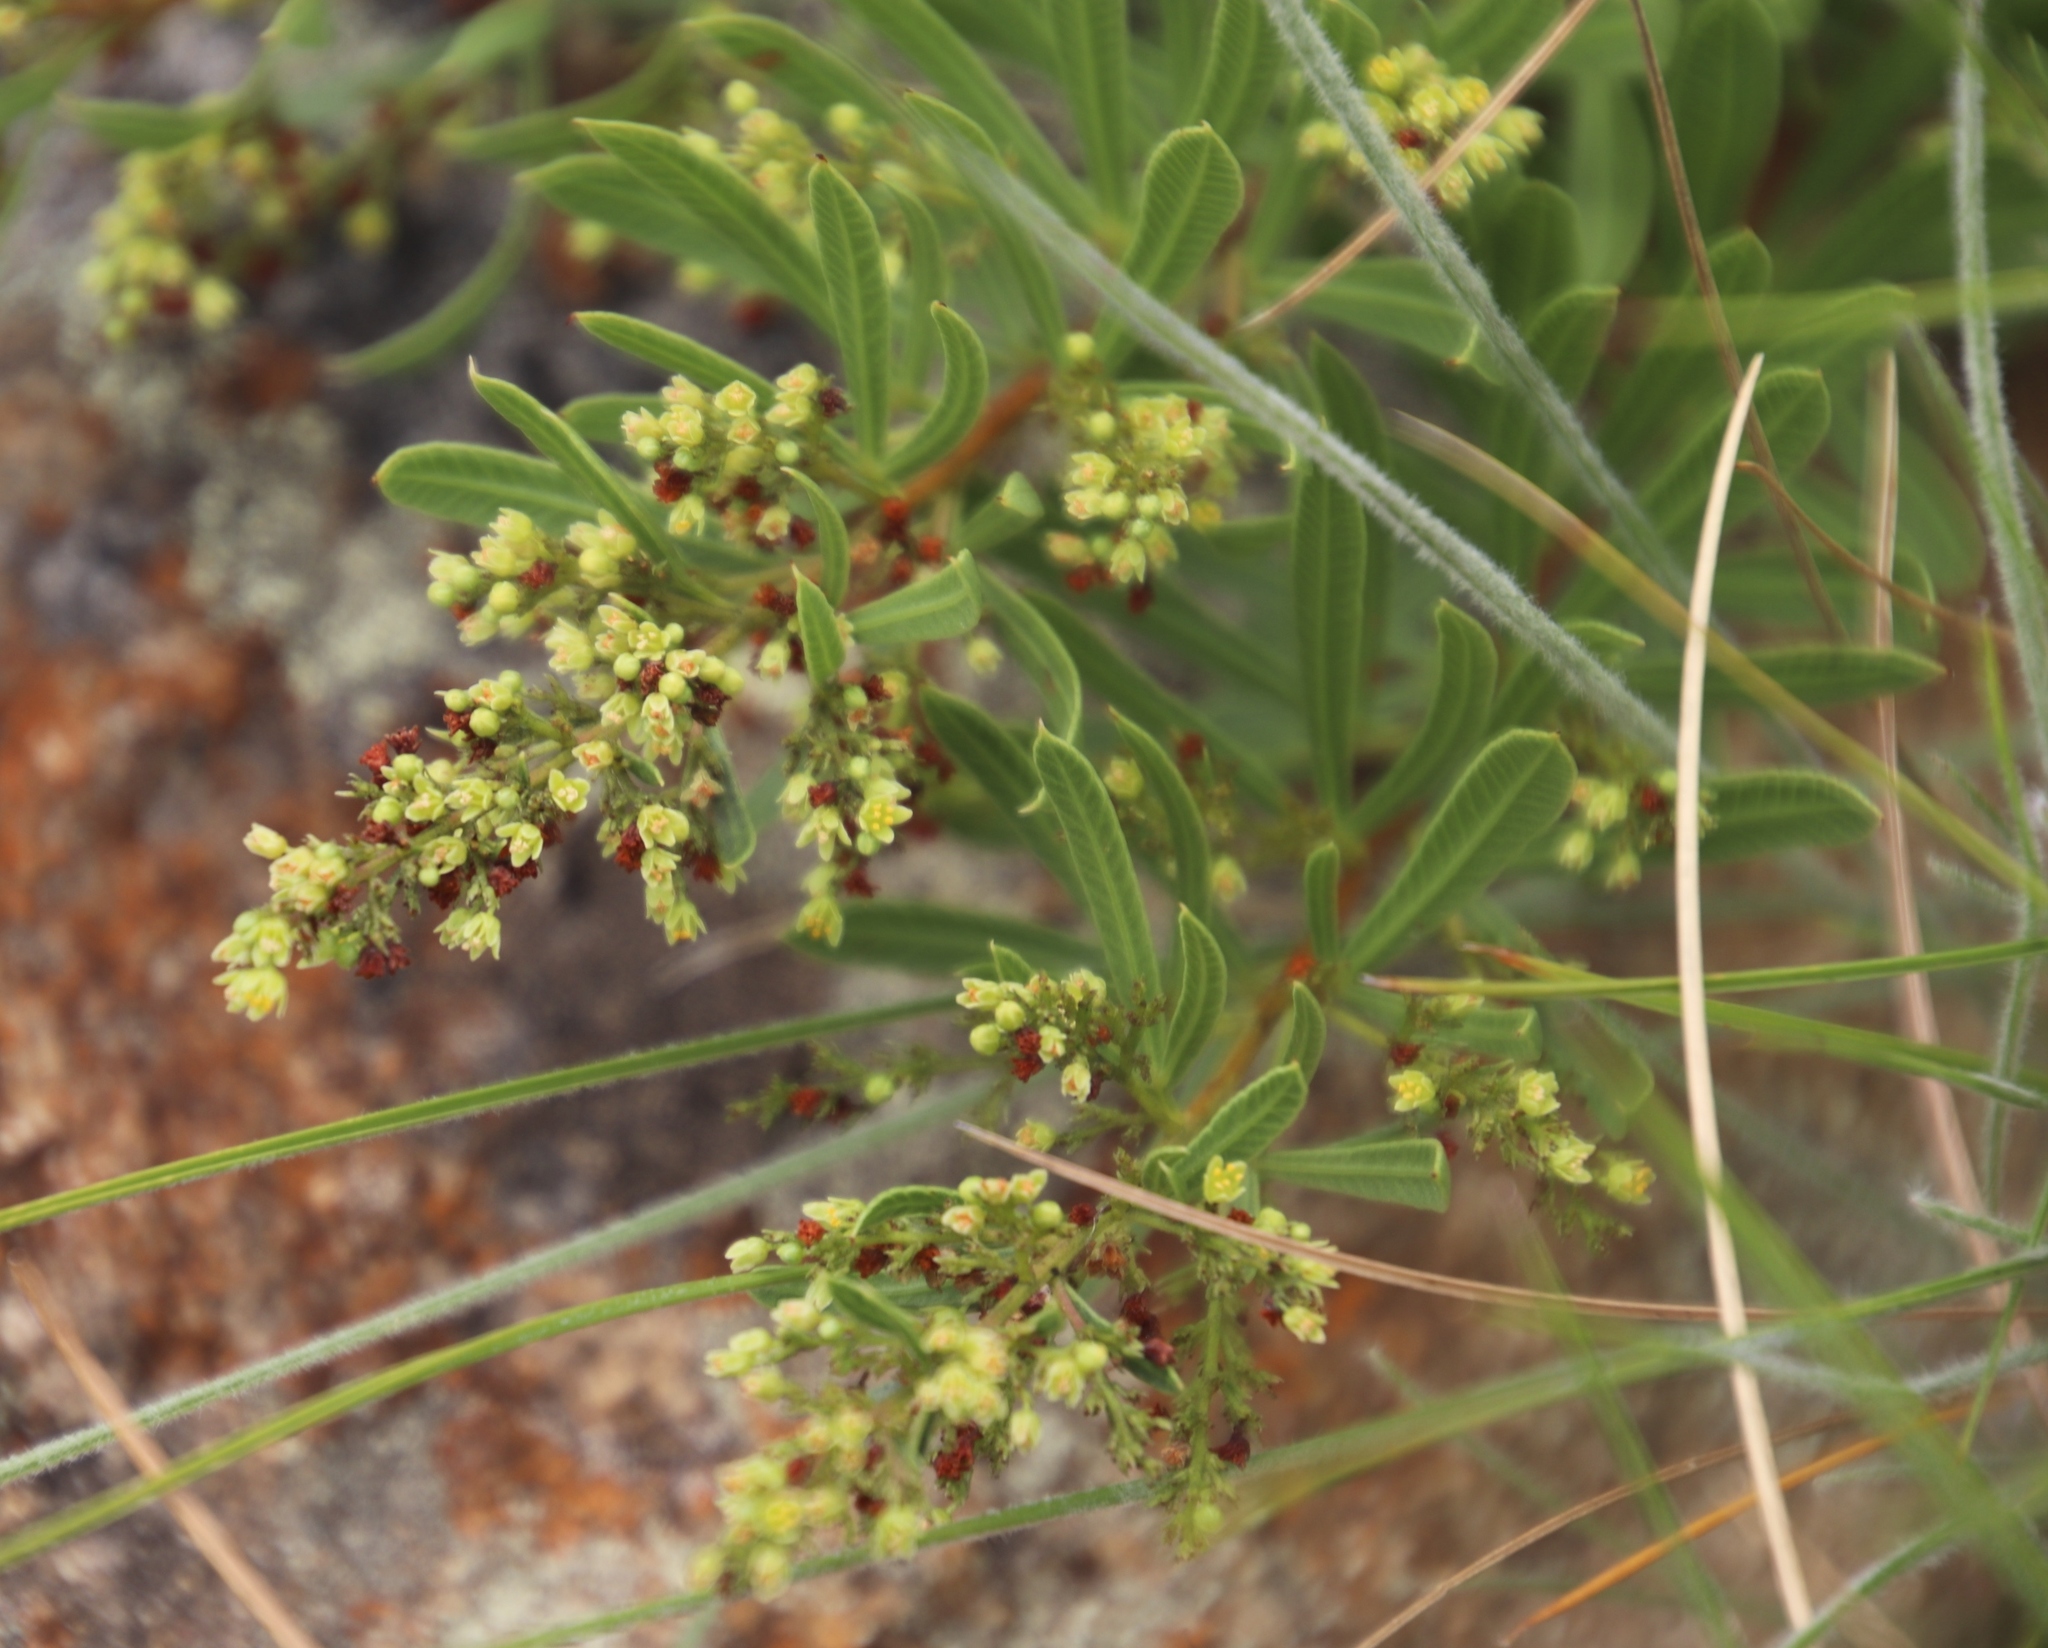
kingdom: Plantae
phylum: Tracheophyta
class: Magnoliopsida
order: Sapindales
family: Anacardiaceae
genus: Searsia
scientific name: Searsia pondoensis
